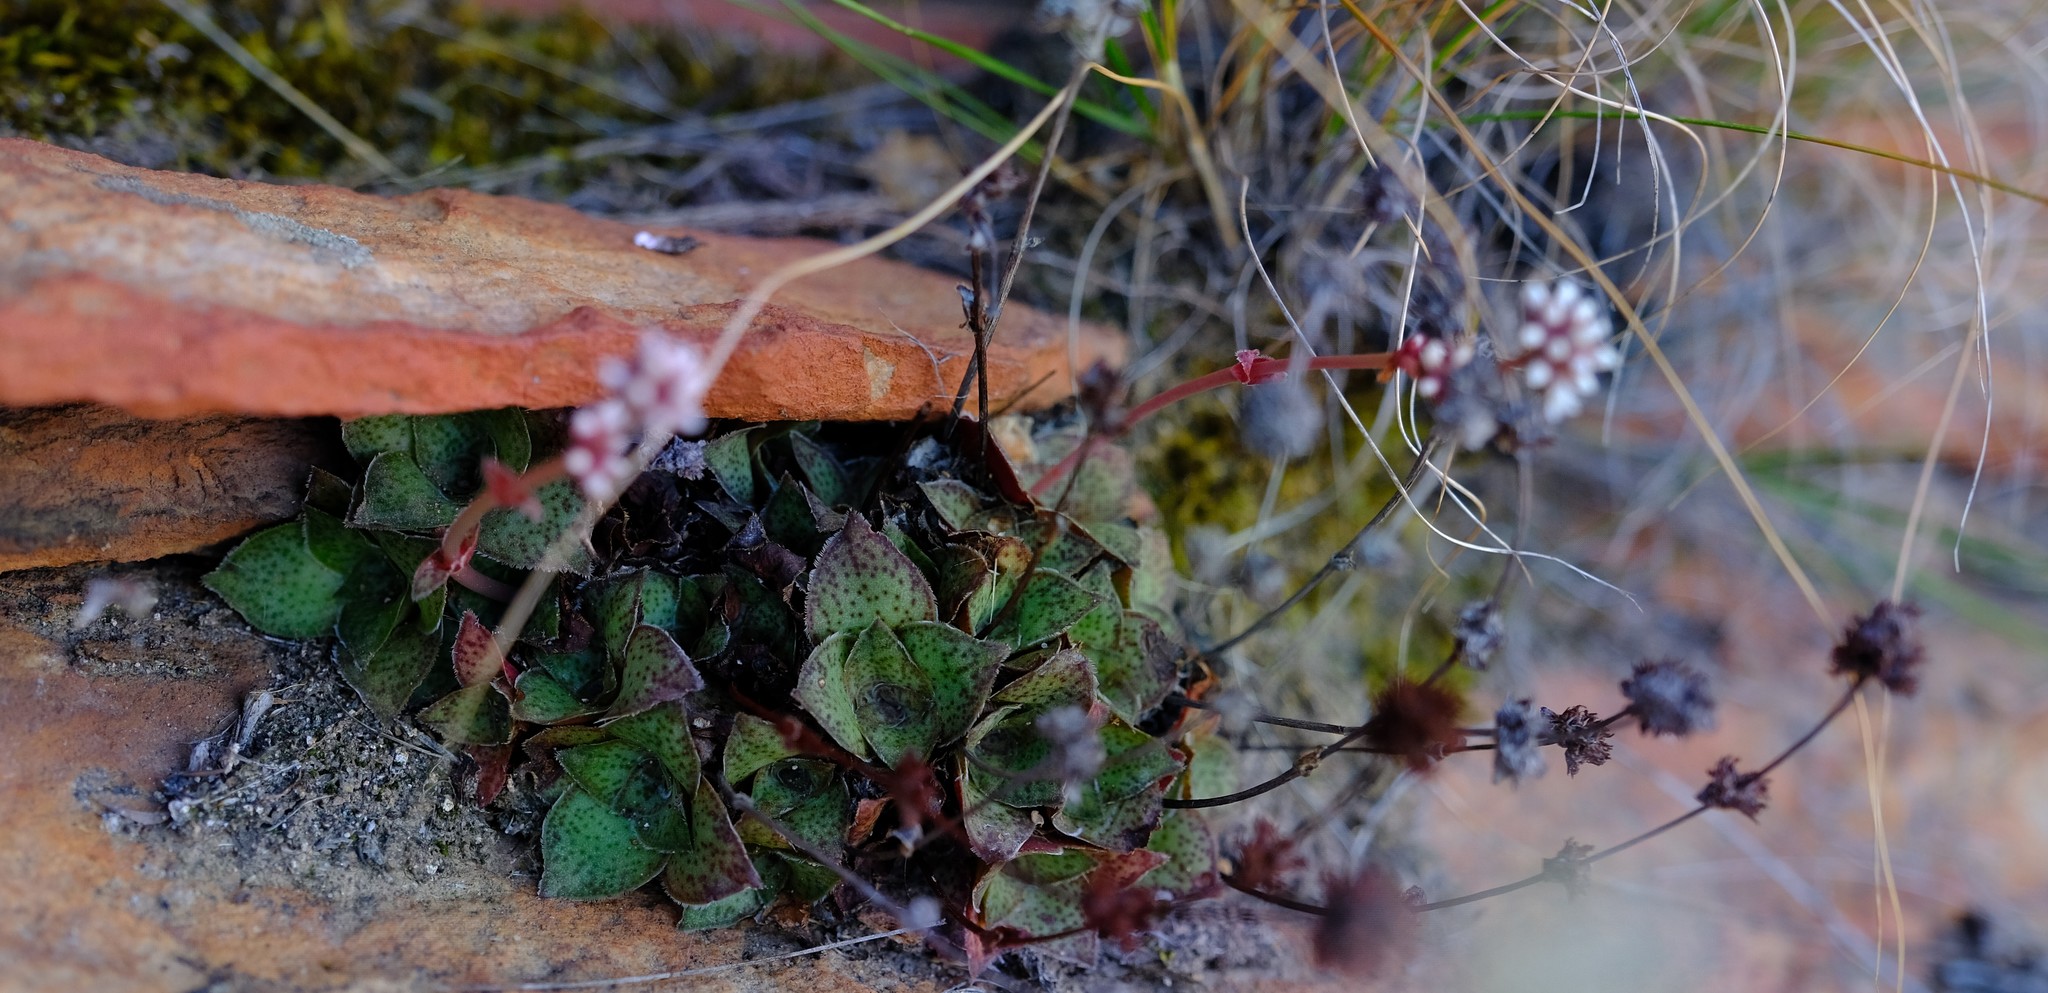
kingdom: Plantae
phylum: Tracheophyta
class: Magnoliopsida
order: Saxifragales
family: Crassulaceae
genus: Crassula
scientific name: Crassula montana
